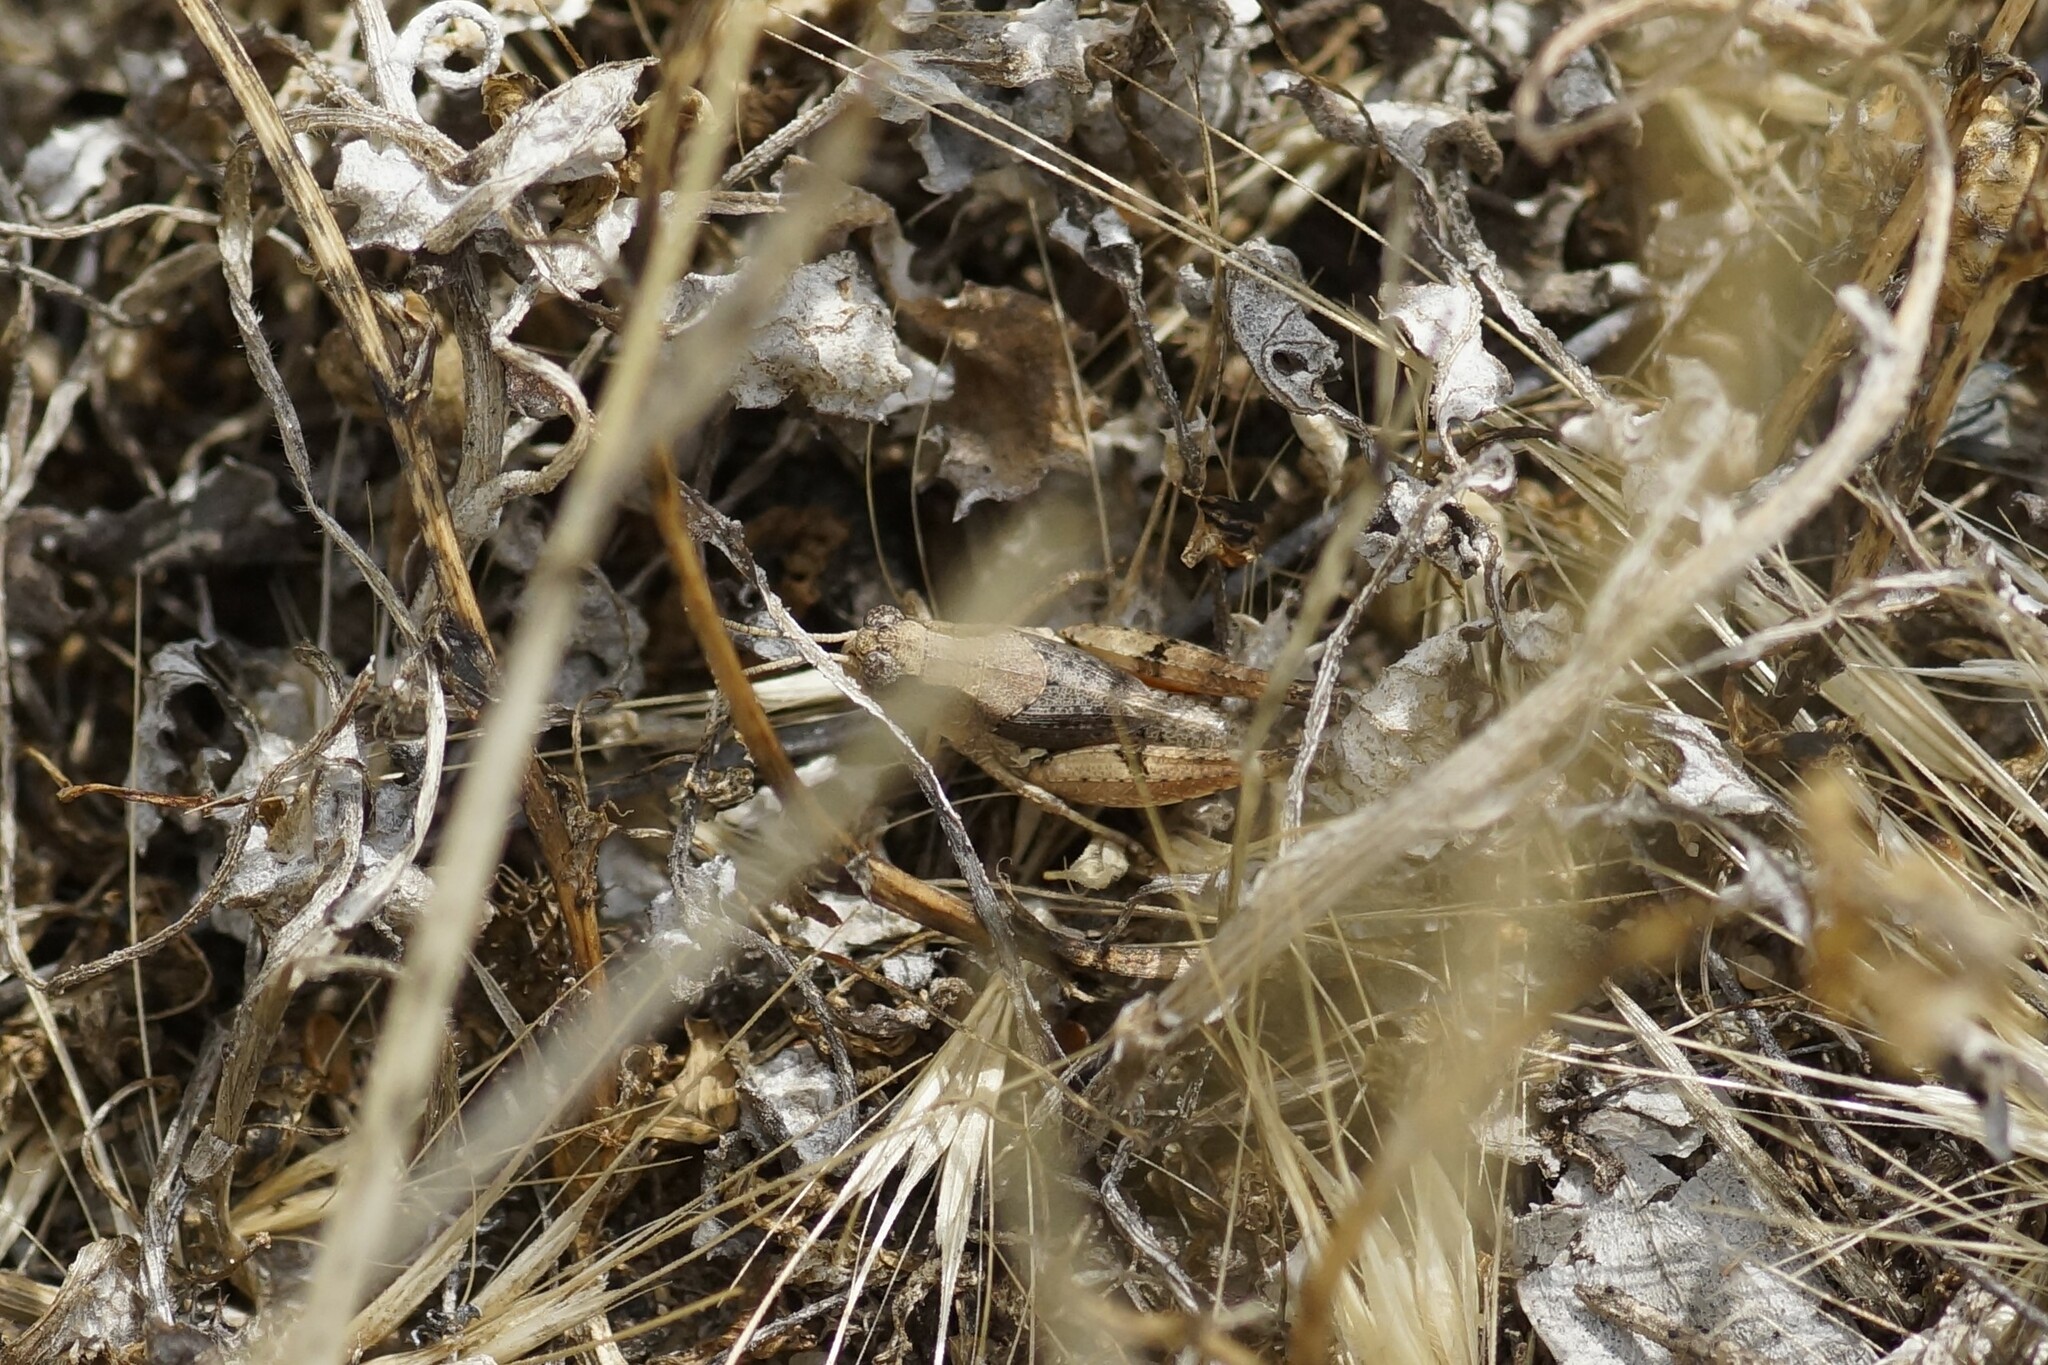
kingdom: Animalia
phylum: Arthropoda
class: Insecta
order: Orthoptera
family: Acrididae
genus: Phaulacridium
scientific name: Phaulacridium vittatum
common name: Wingless grasshopper
